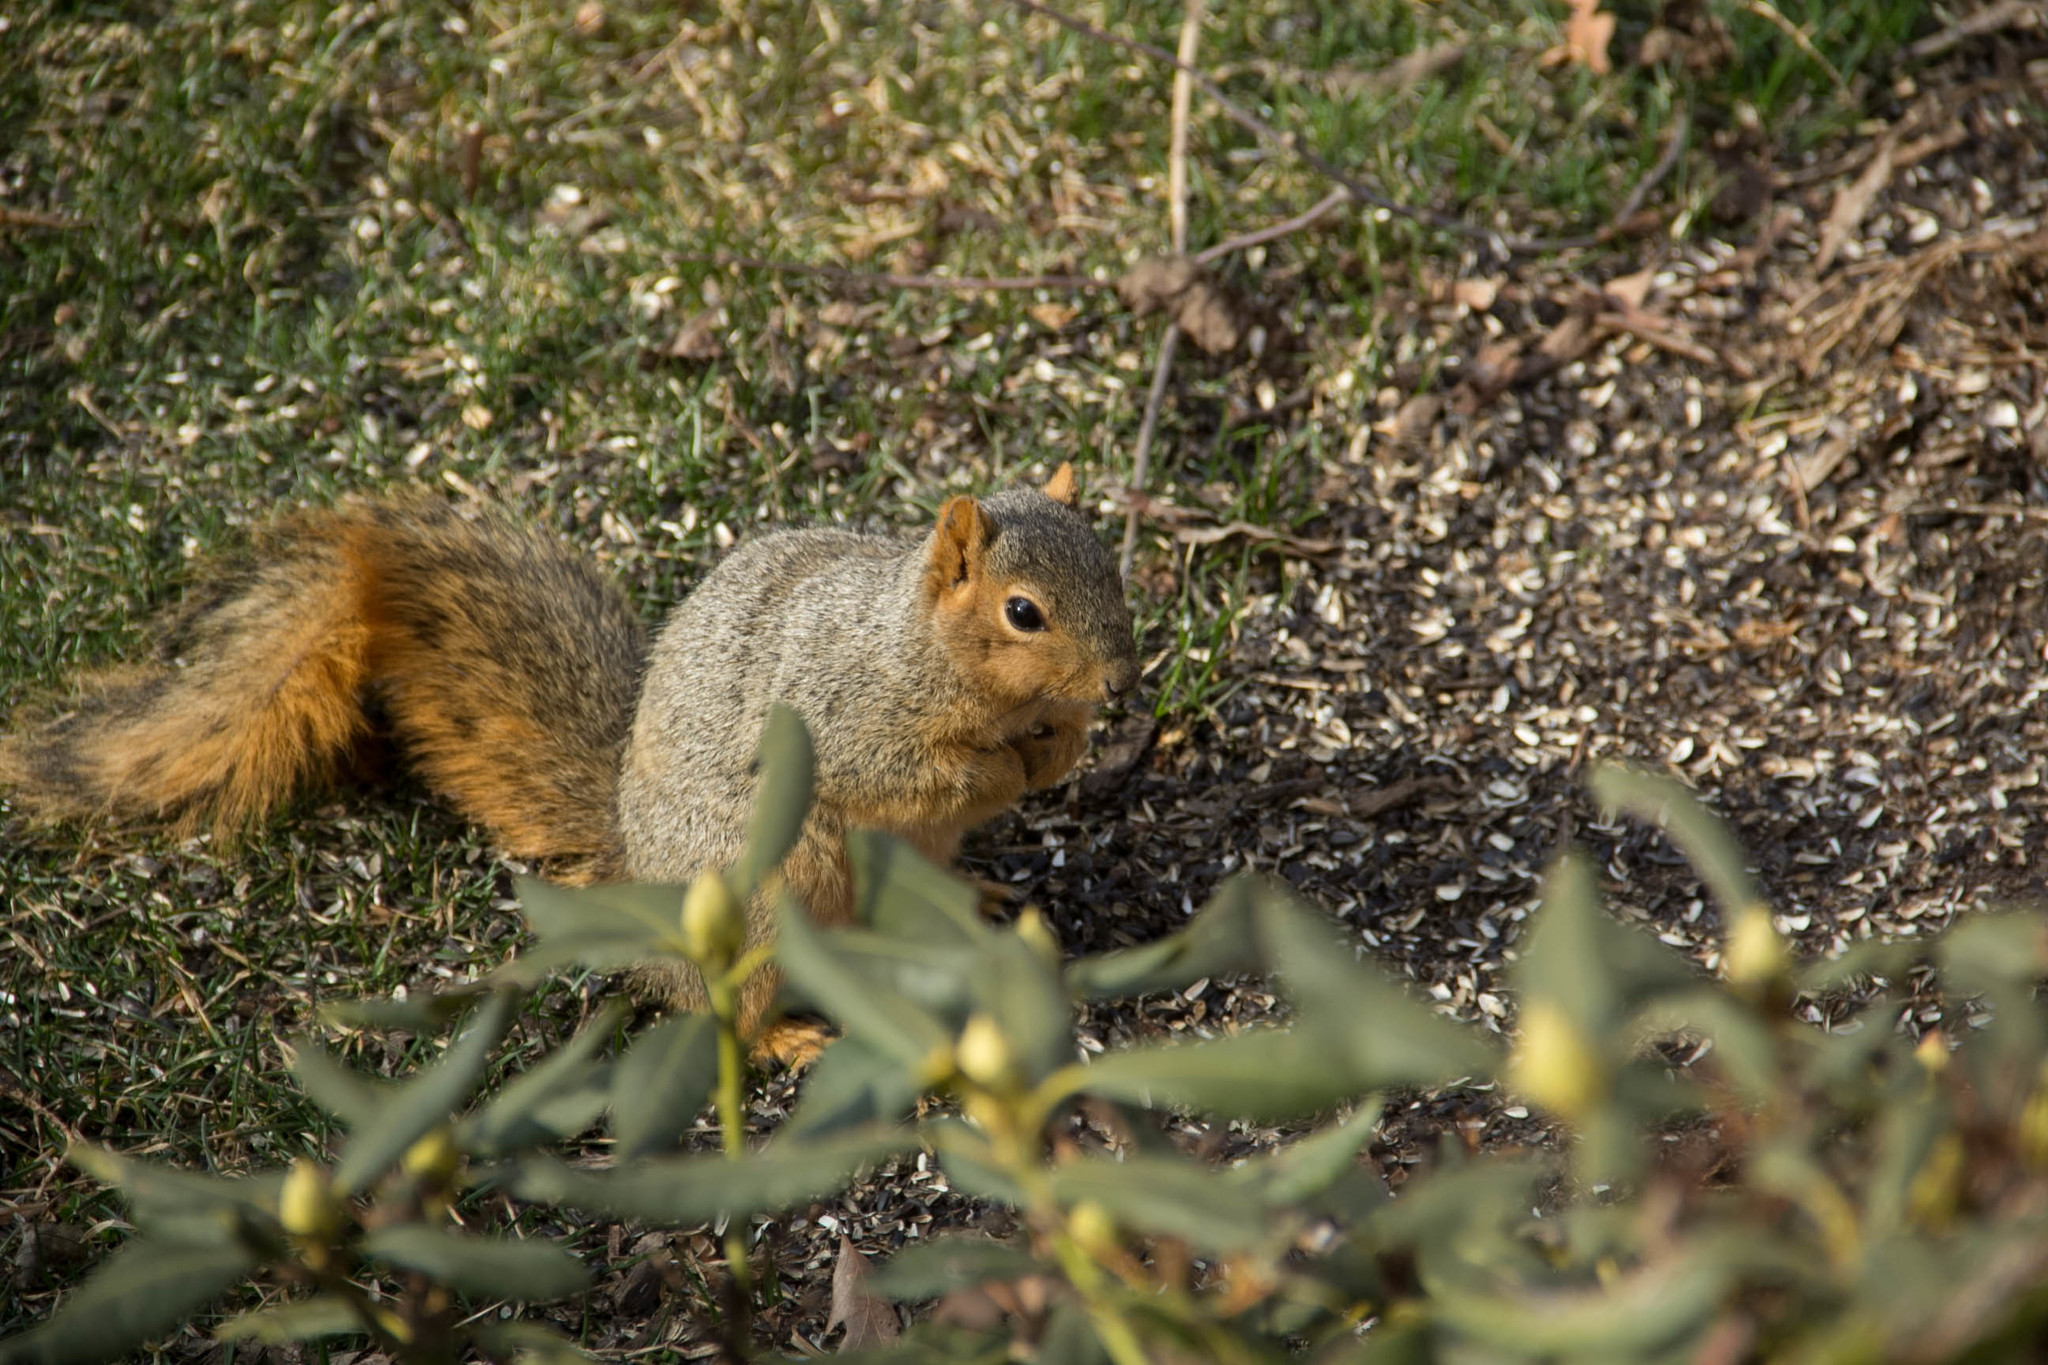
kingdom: Animalia
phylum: Chordata
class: Mammalia
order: Rodentia
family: Sciuridae
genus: Sciurus
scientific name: Sciurus niger
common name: Fox squirrel
